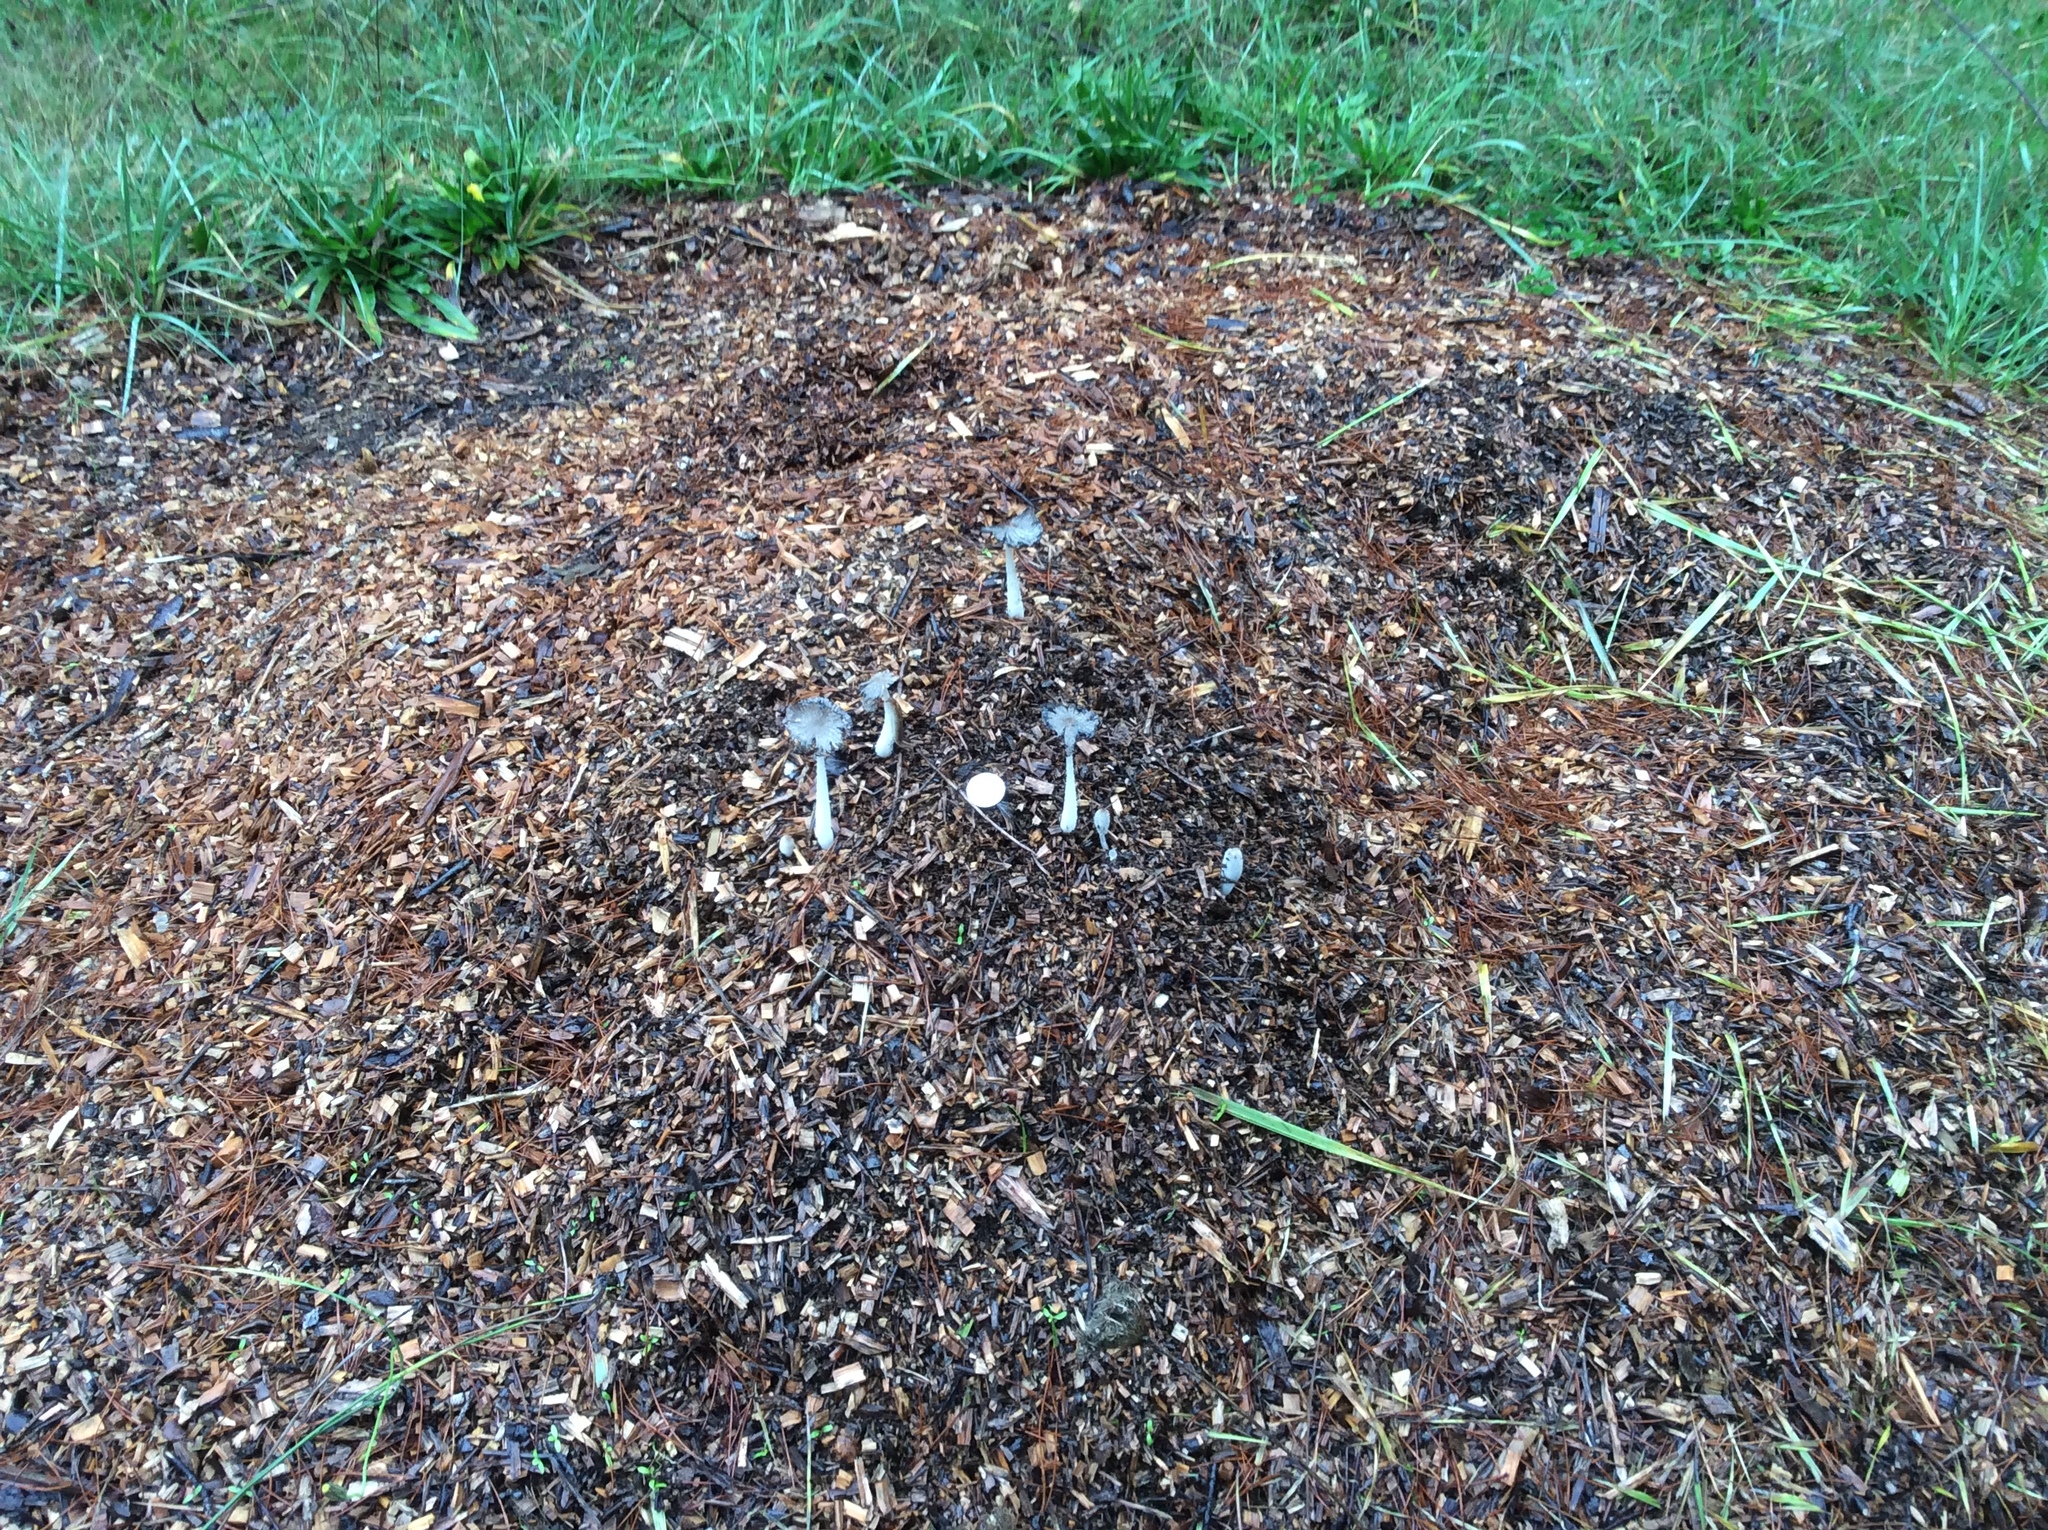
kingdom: Fungi
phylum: Basidiomycota
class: Agaricomycetes
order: Agaricales
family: Psathyrellaceae
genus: Coprinopsis
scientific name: Coprinopsis lagopus
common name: Hare'sfoot inkcap
